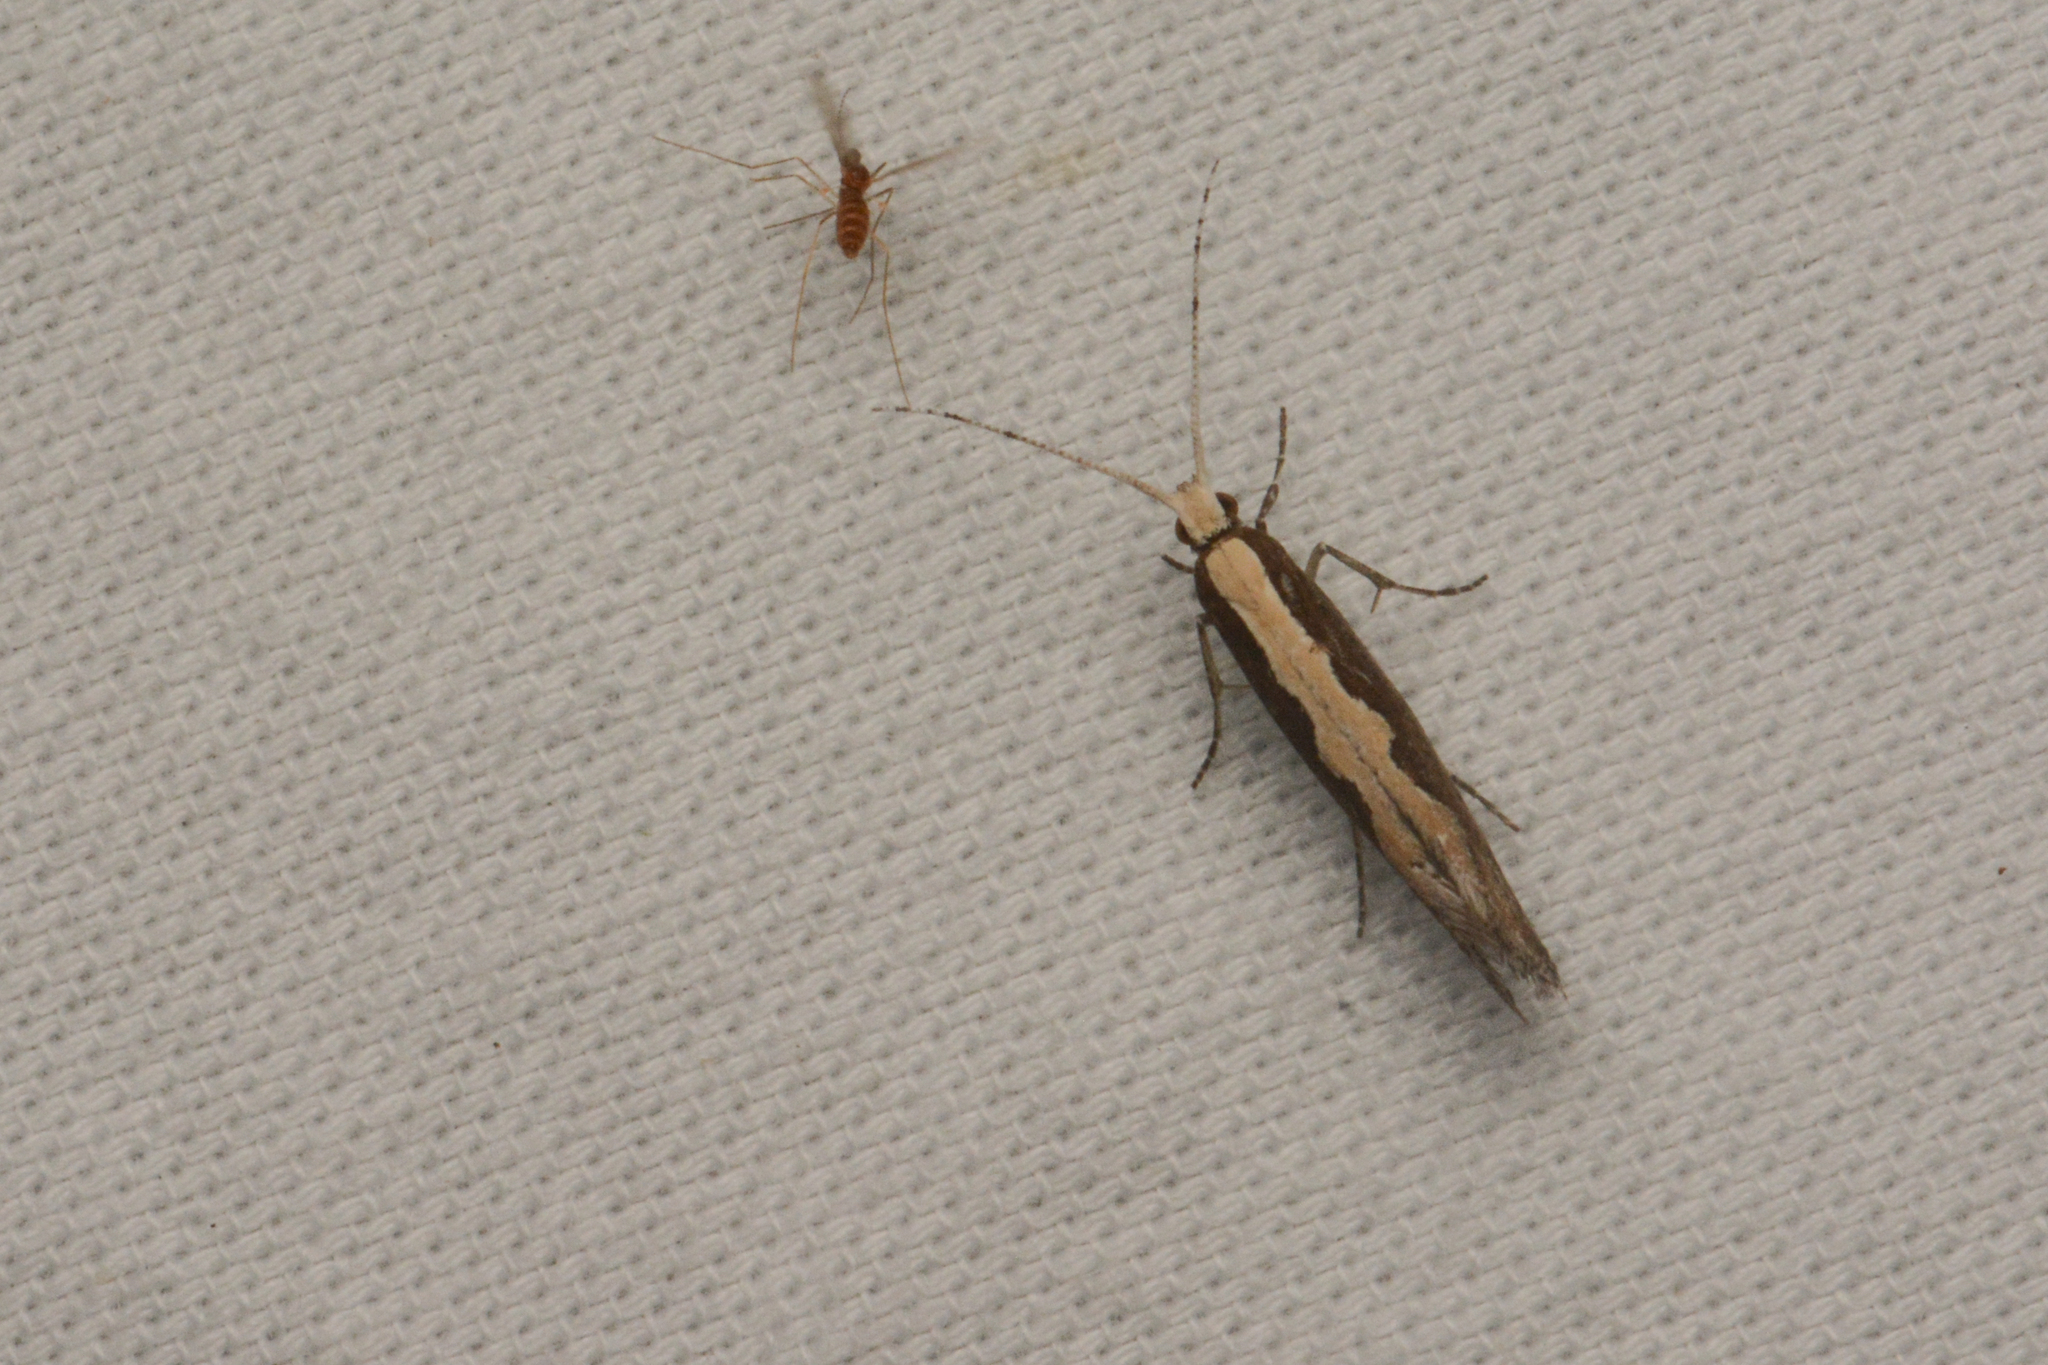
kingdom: Animalia
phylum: Arthropoda
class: Insecta
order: Lepidoptera
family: Plutellidae
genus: Plutella
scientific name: Plutella xylostella
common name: Diamond-back moth
